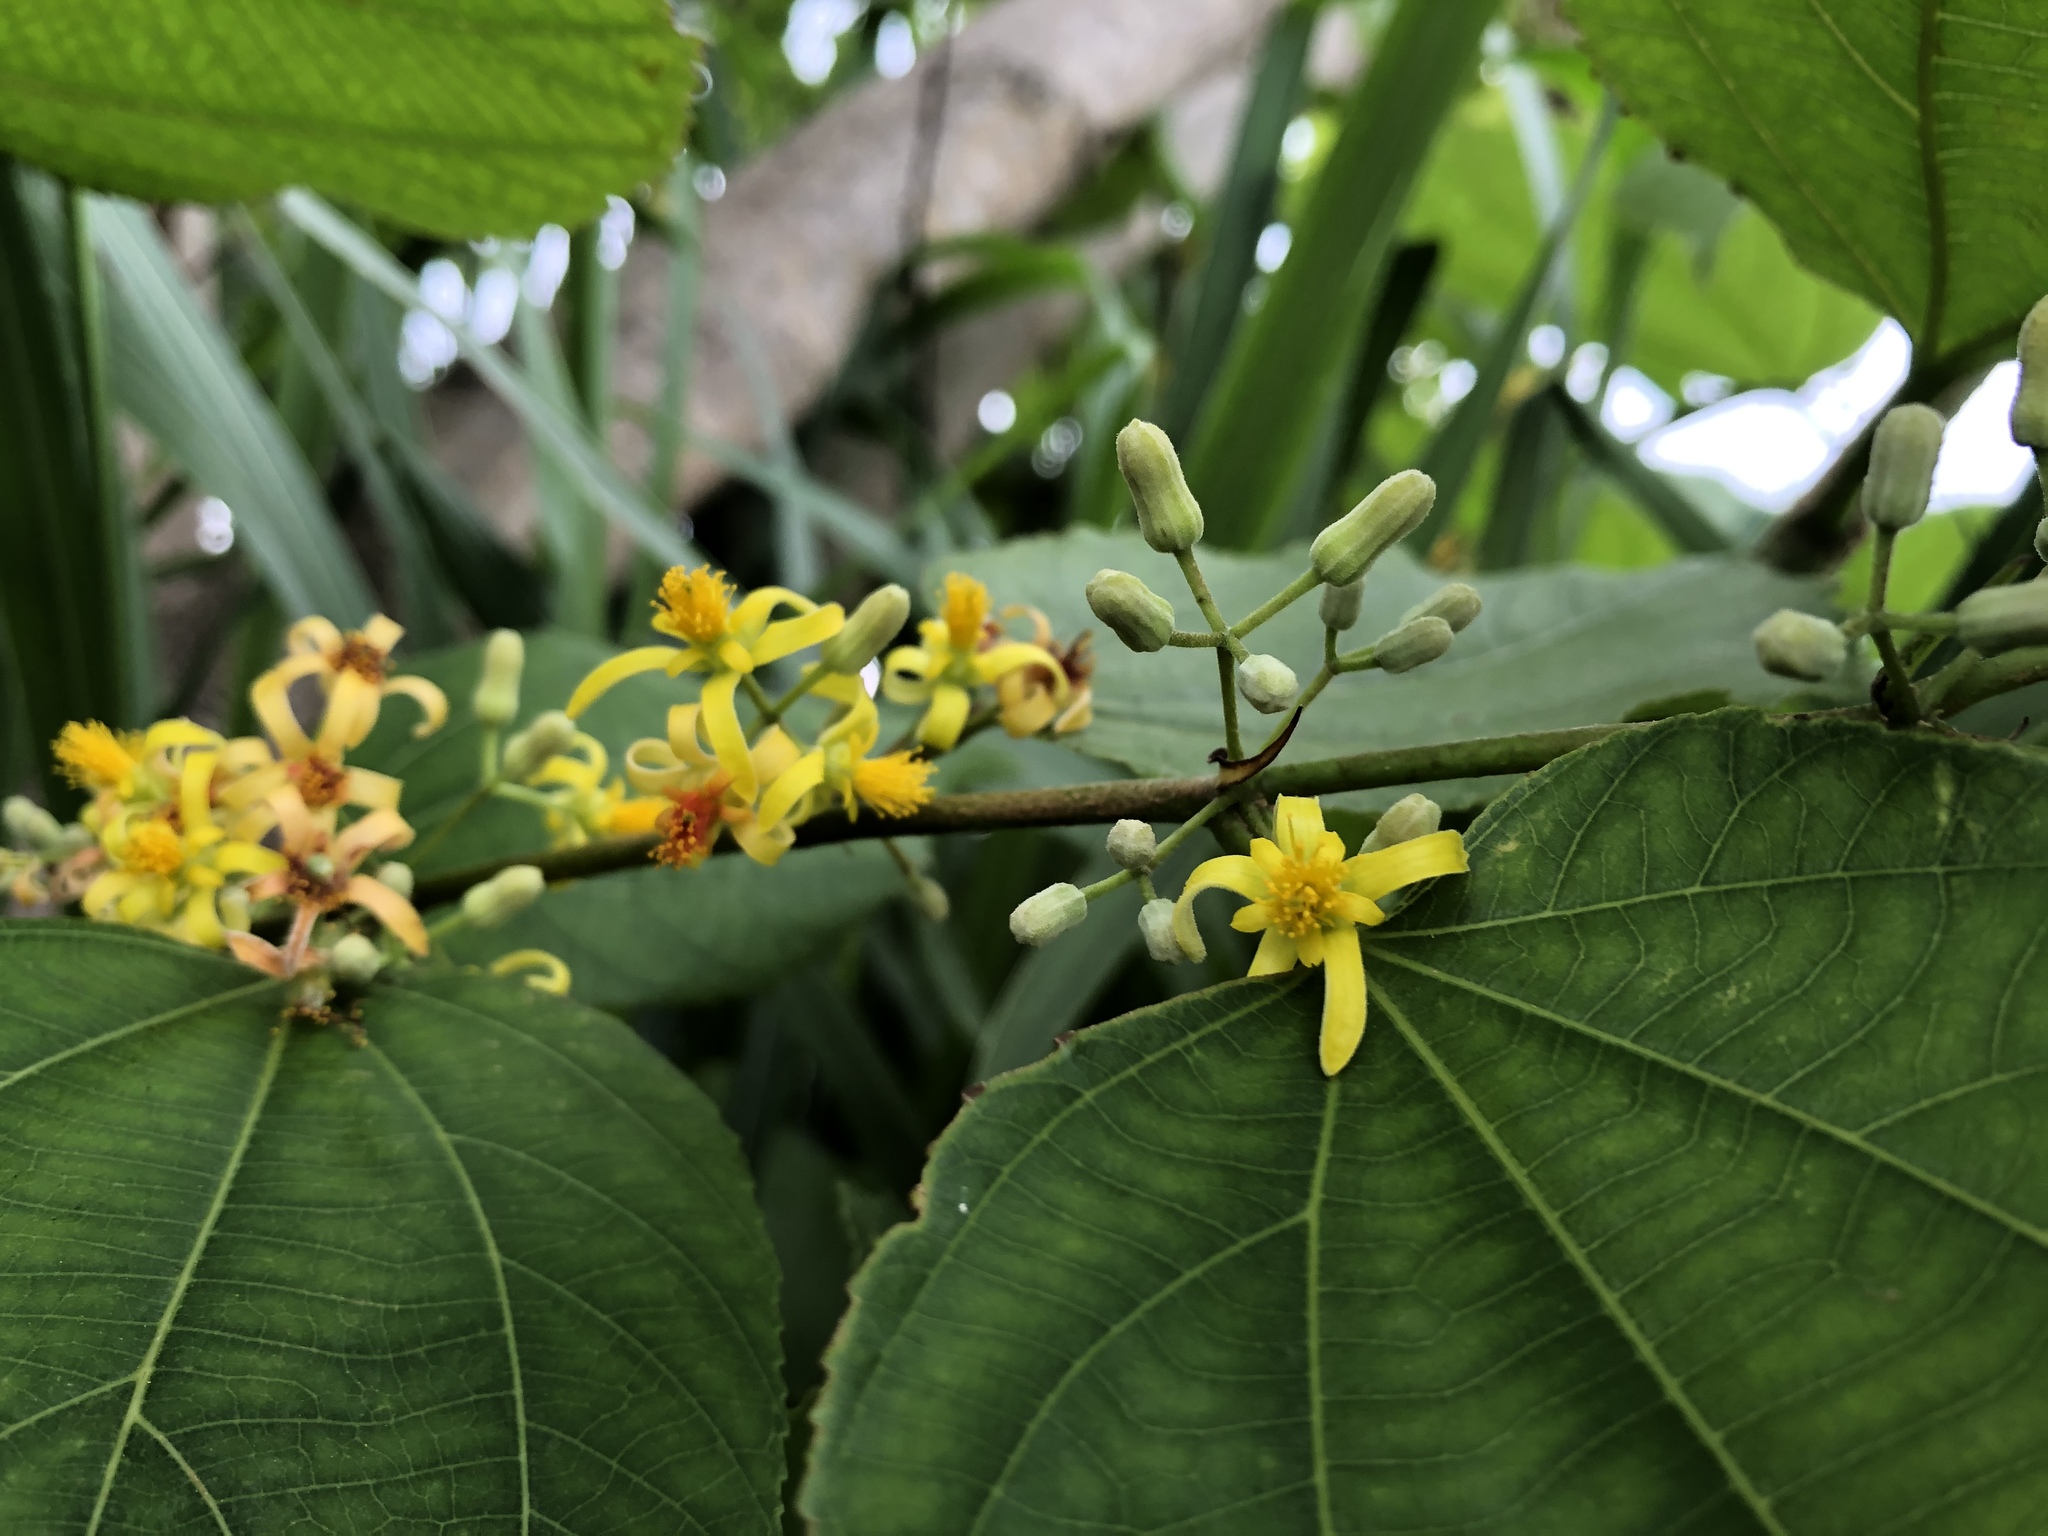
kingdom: Plantae
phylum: Tracheophyta
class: Magnoliopsida
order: Malvales
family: Malvaceae
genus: Grewia
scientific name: Grewia tiliifolia
